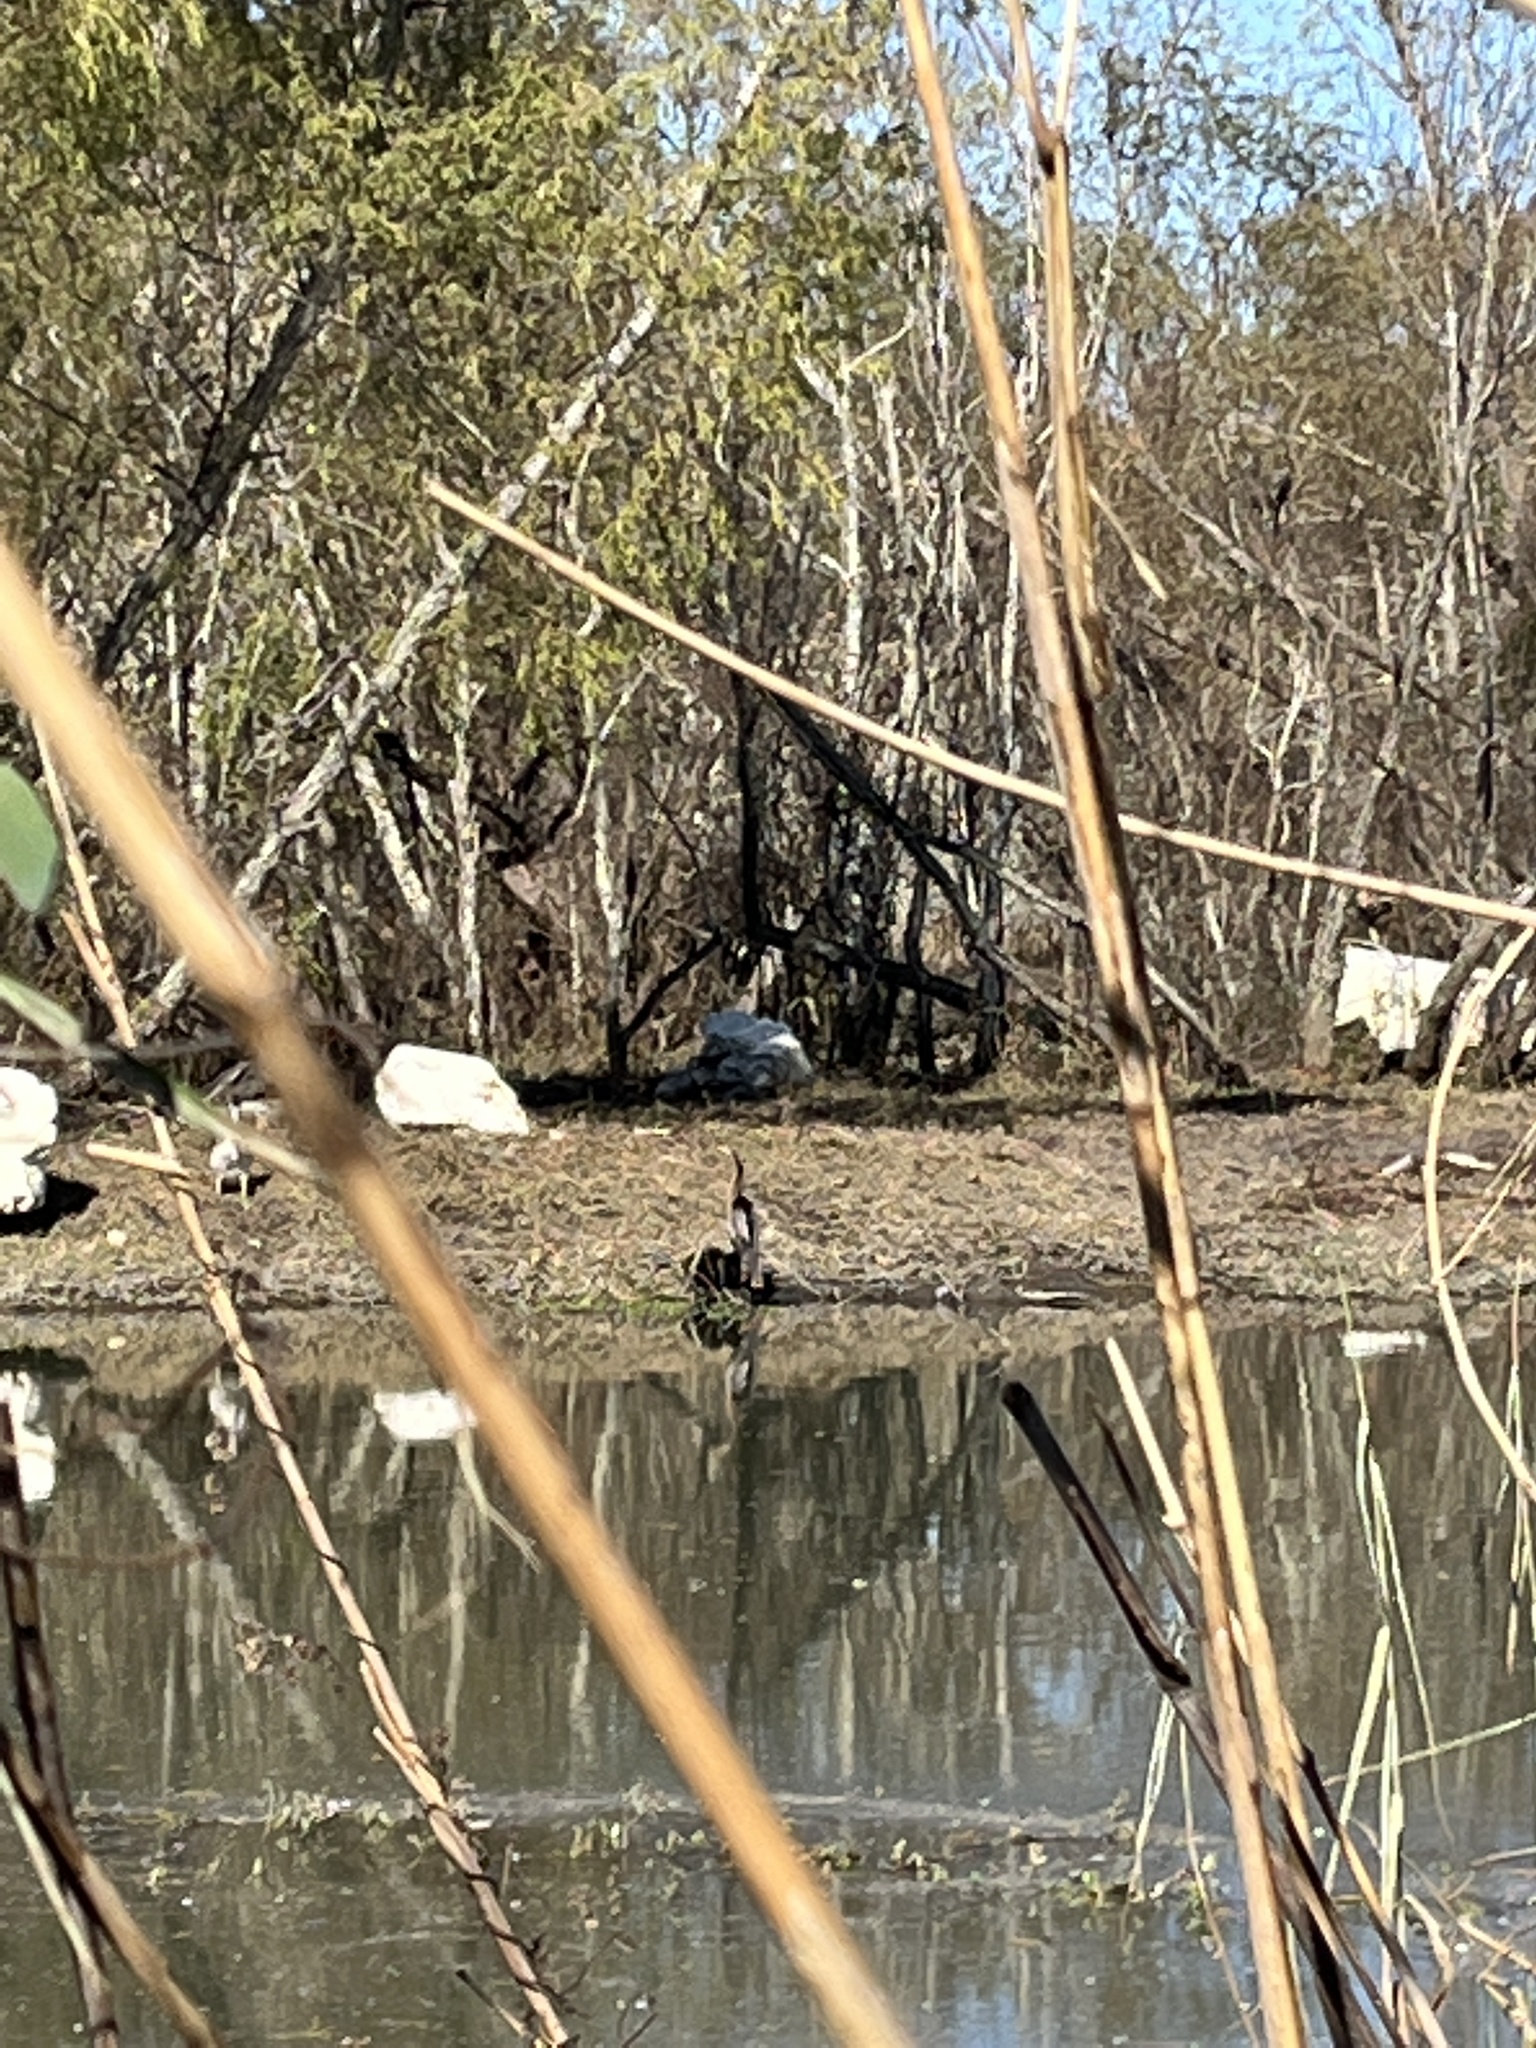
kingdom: Animalia
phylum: Chordata
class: Aves
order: Suliformes
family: Anhingidae
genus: Anhinga
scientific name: Anhinga anhinga
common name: Anhinga
